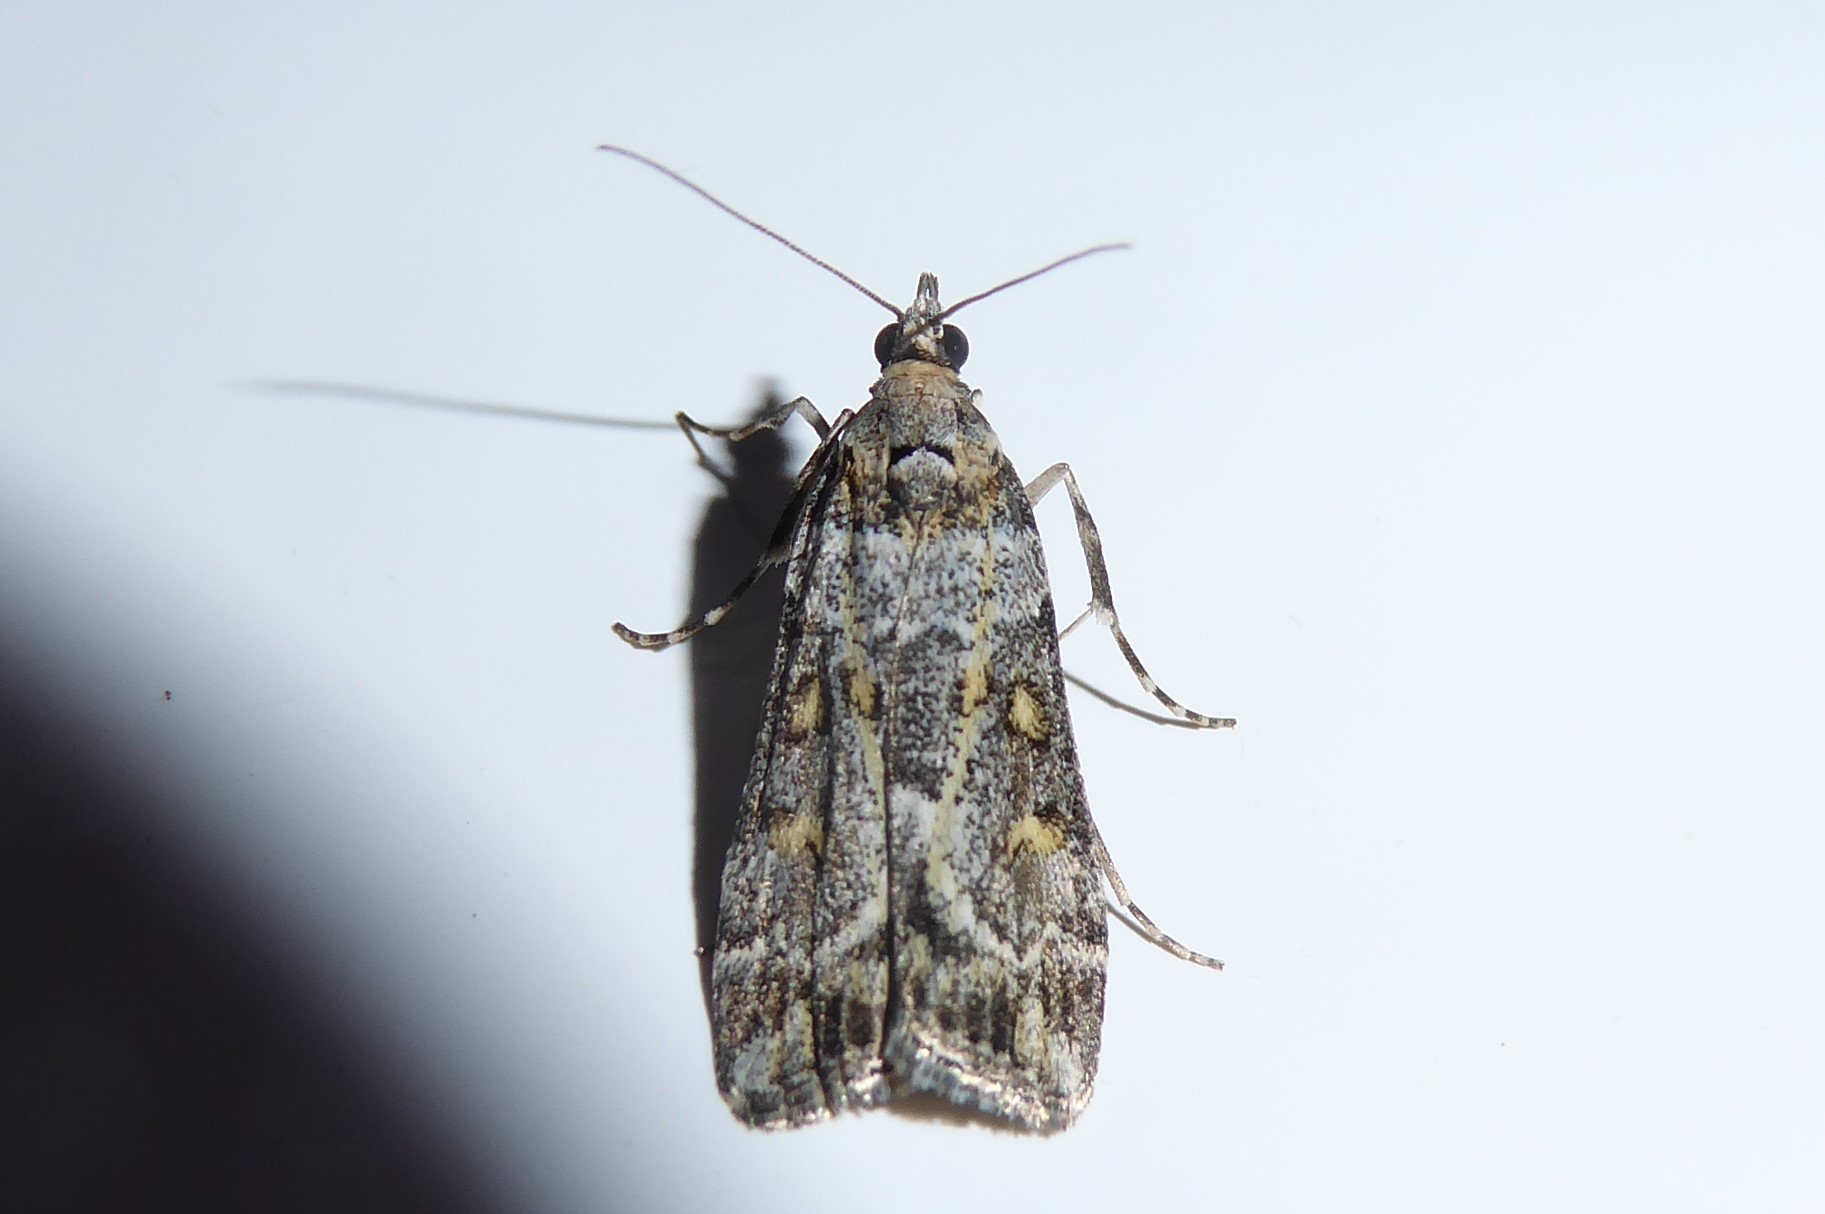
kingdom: Animalia
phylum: Arthropoda
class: Insecta
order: Lepidoptera
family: Crambidae
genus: Eudonia
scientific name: Eudonia diphtheralis
